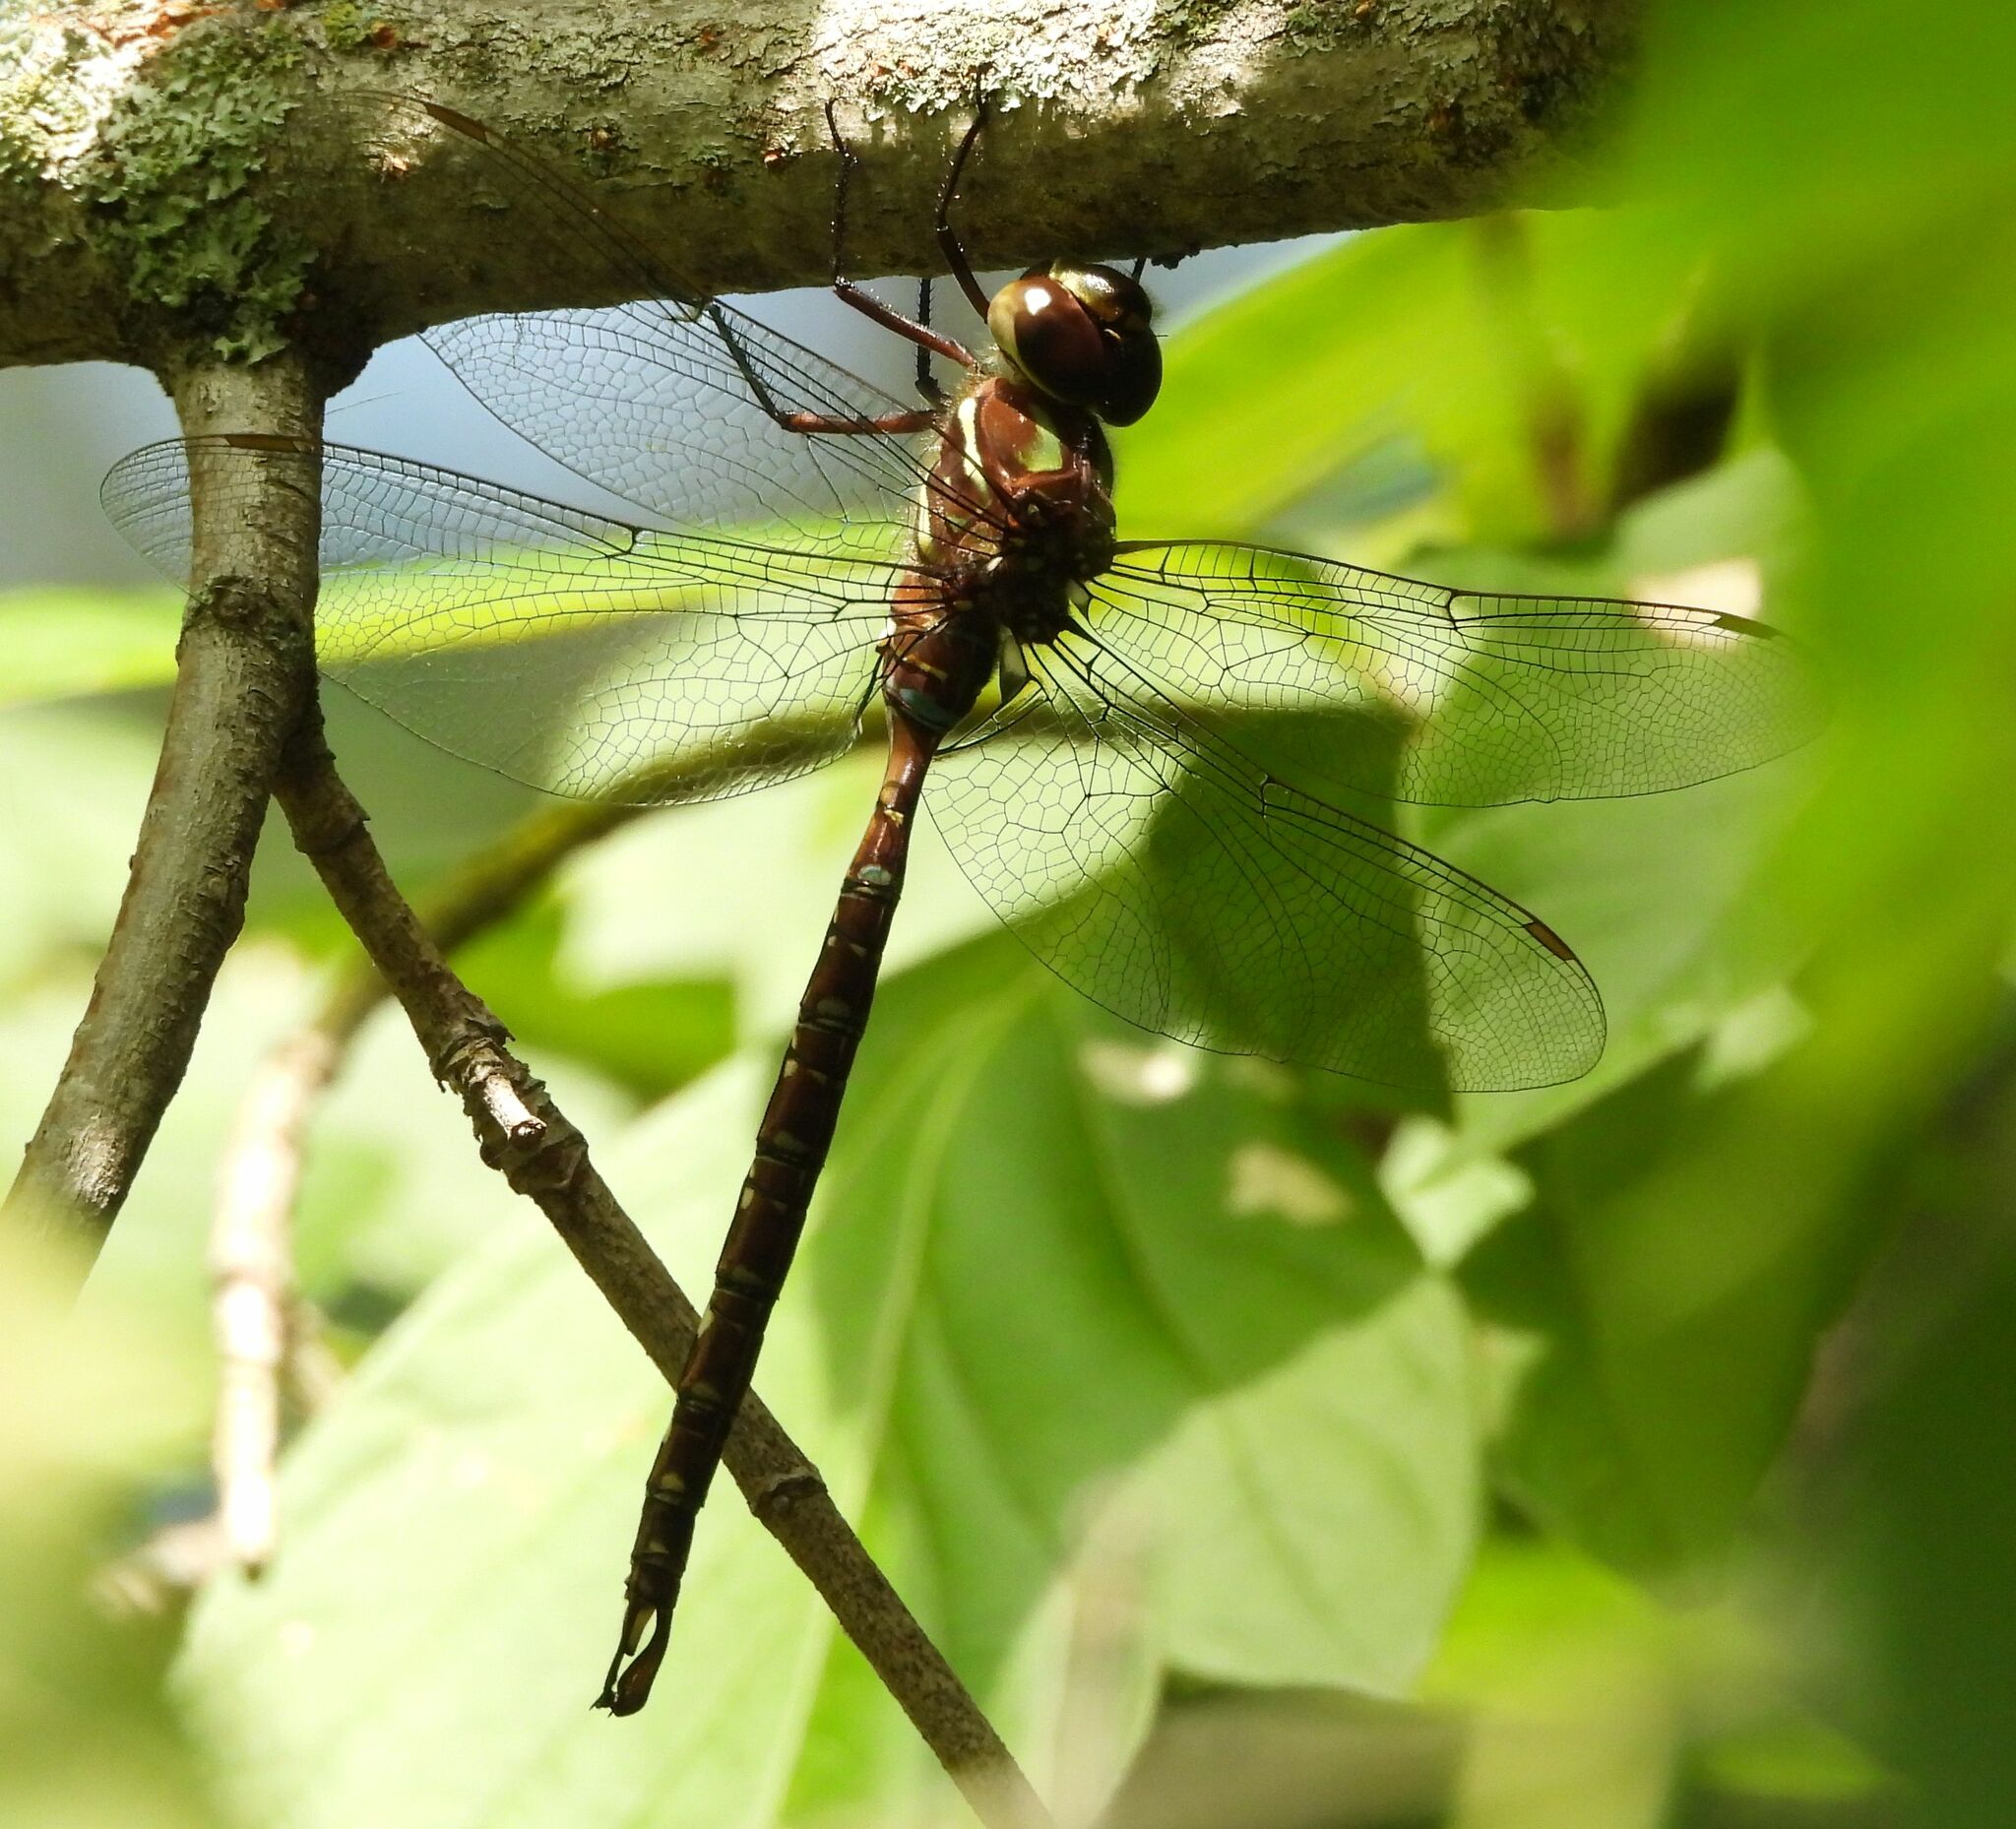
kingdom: Animalia
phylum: Arthropoda
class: Insecta
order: Odonata
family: Aeshnidae
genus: Aeshna
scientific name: Aeshna umbrosa
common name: Shadow darner
